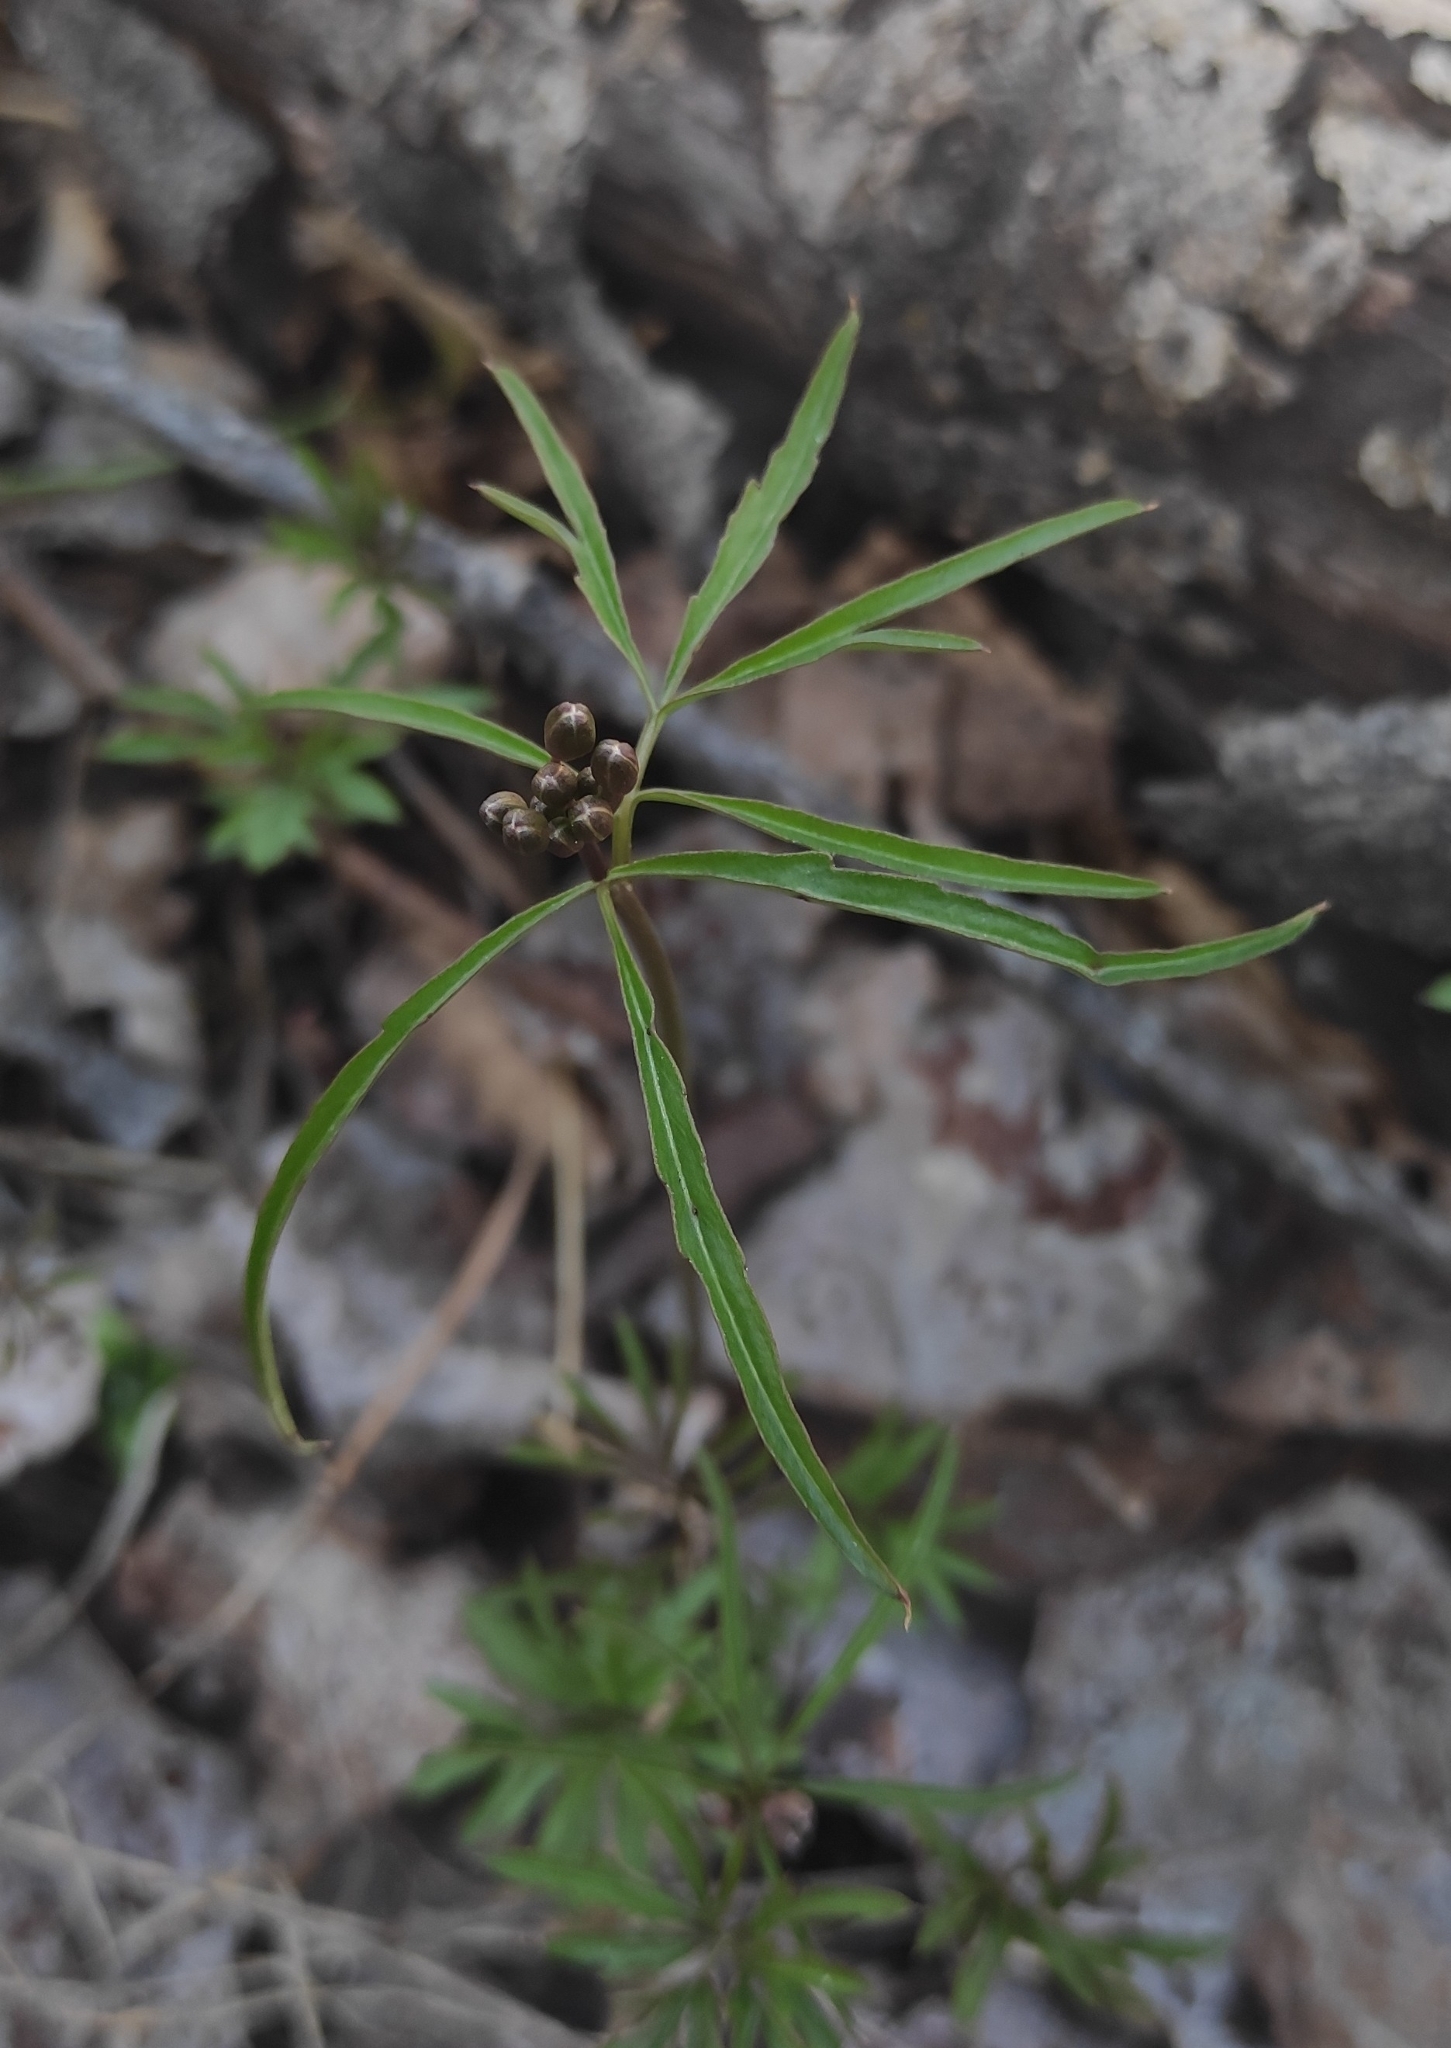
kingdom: Plantae
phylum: Tracheophyta
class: Magnoliopsida
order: Brassicales
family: Brassicaceae
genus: Cardamine
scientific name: Cardamine trifida
